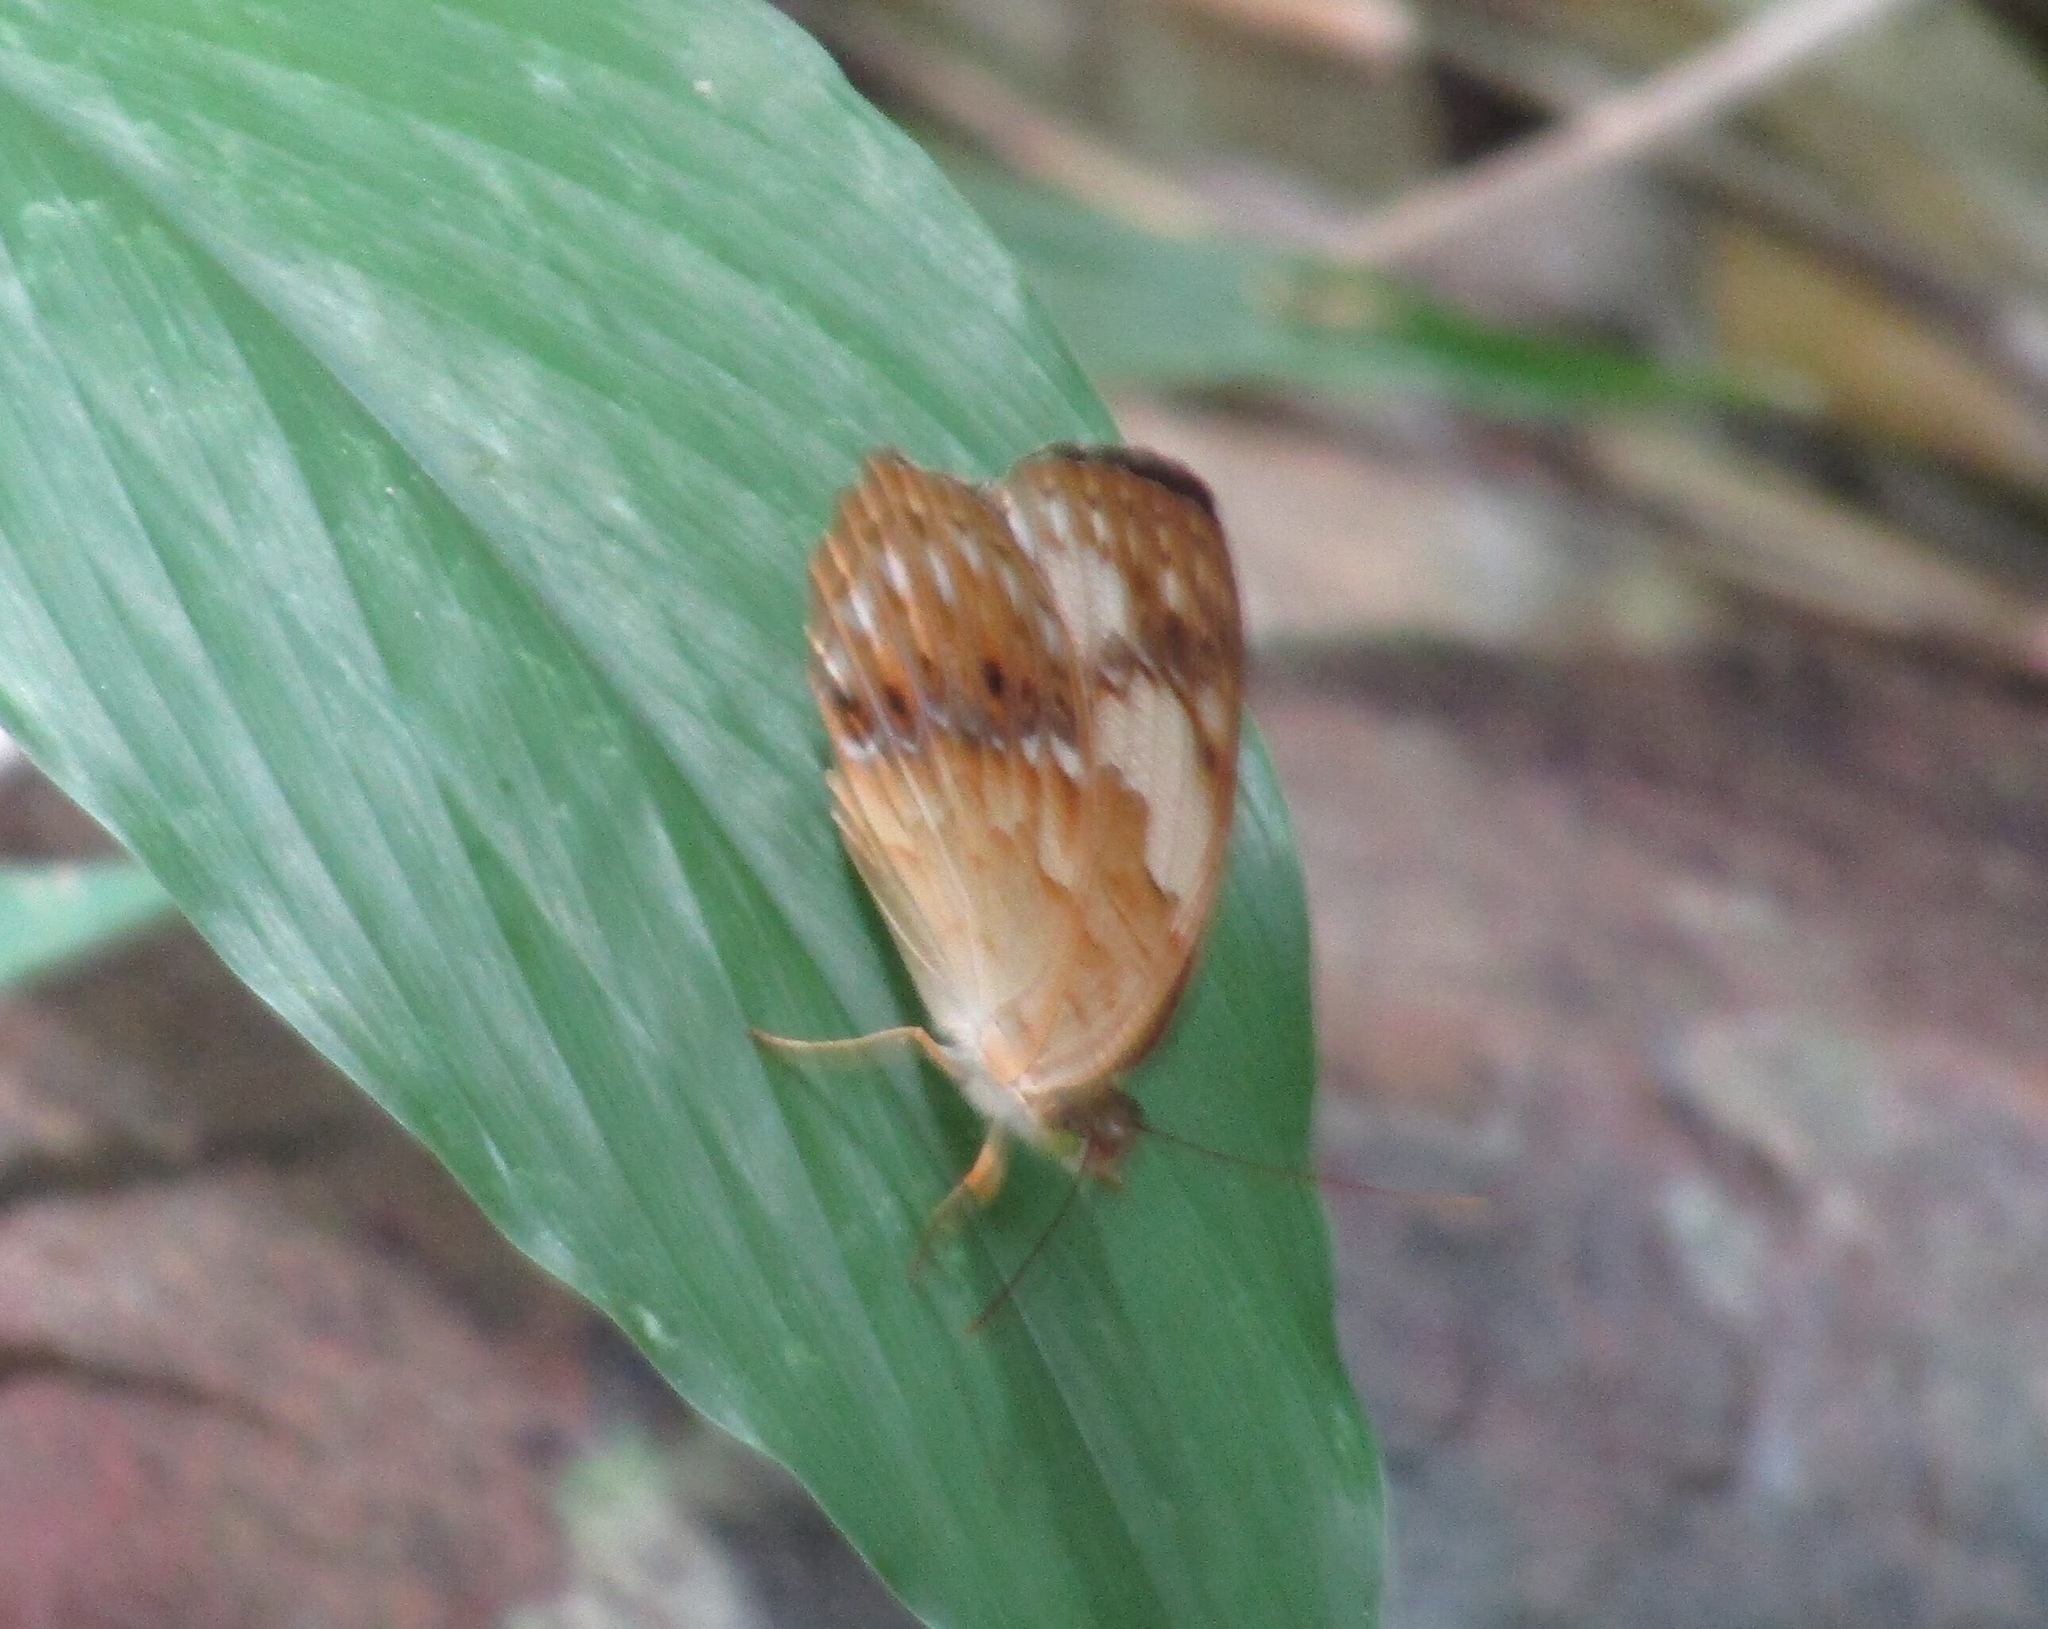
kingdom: Animalia
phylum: Arthropoda
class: Insecta
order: Lepidoptera
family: Nymphalidae
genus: Cupha
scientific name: Cupha erymanthis
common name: Rustic
